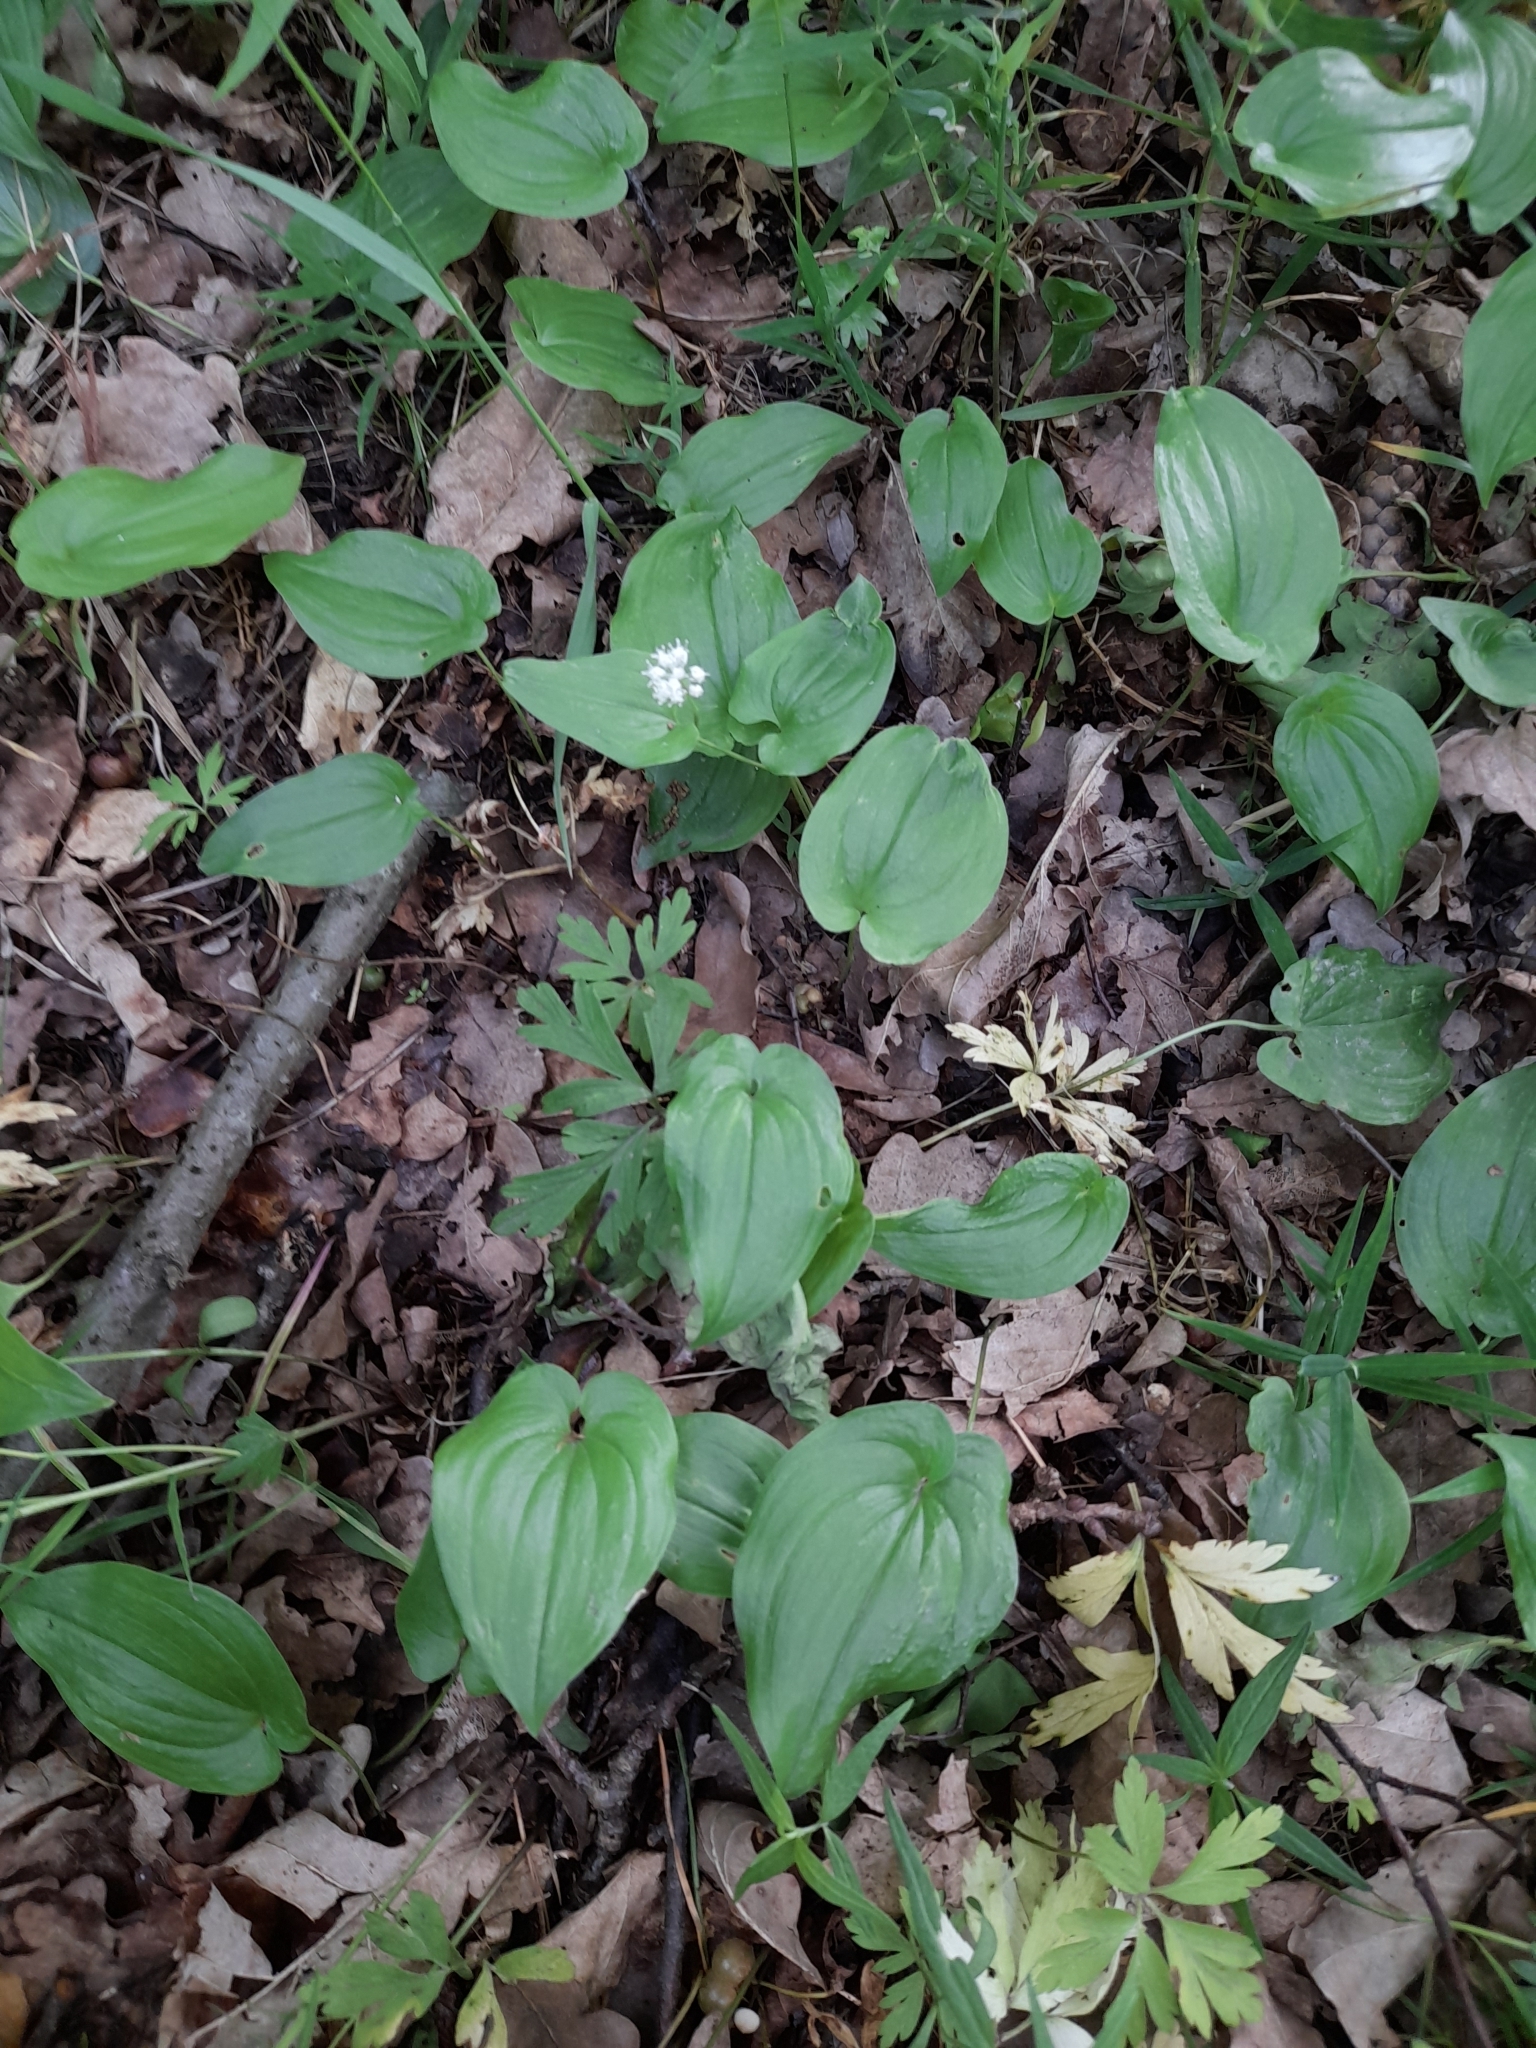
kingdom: Plantae
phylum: Tracheophyta
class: Liliopsida
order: Asparagales
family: Asparagaceae
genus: Maianthemum
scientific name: Maianthemum bifolium
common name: May lily
